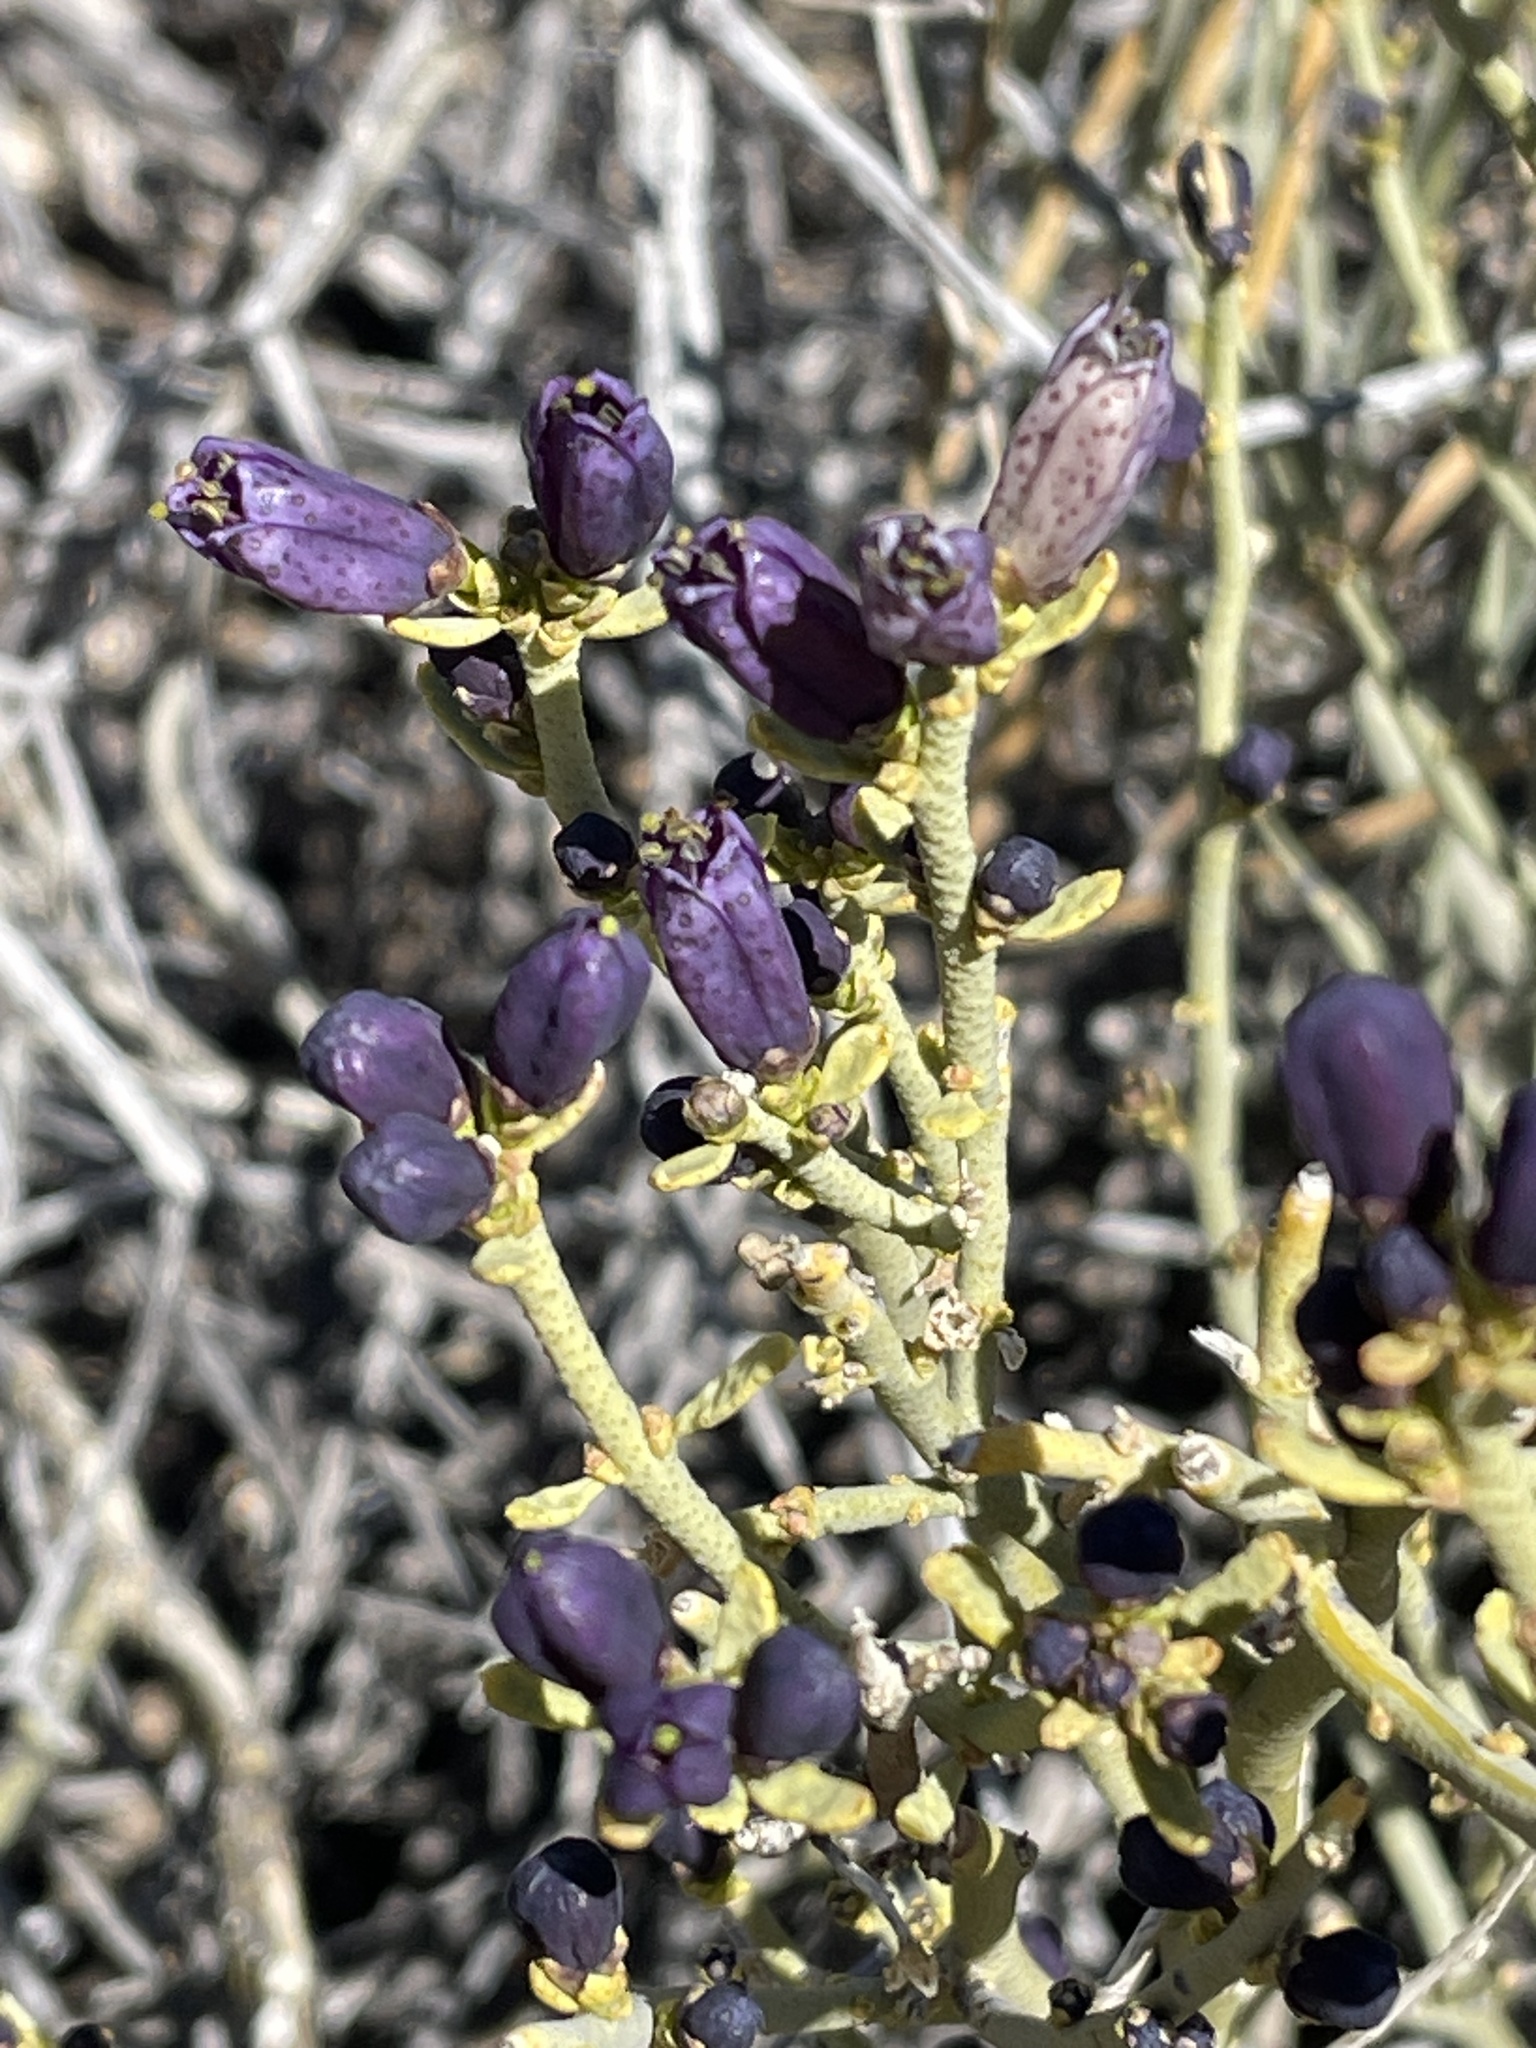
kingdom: Plantae
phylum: Tracheophyta
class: Magnoliopsida
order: Sapindales
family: Rutaceae
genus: Thamnosma
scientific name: Thamnosma montana
